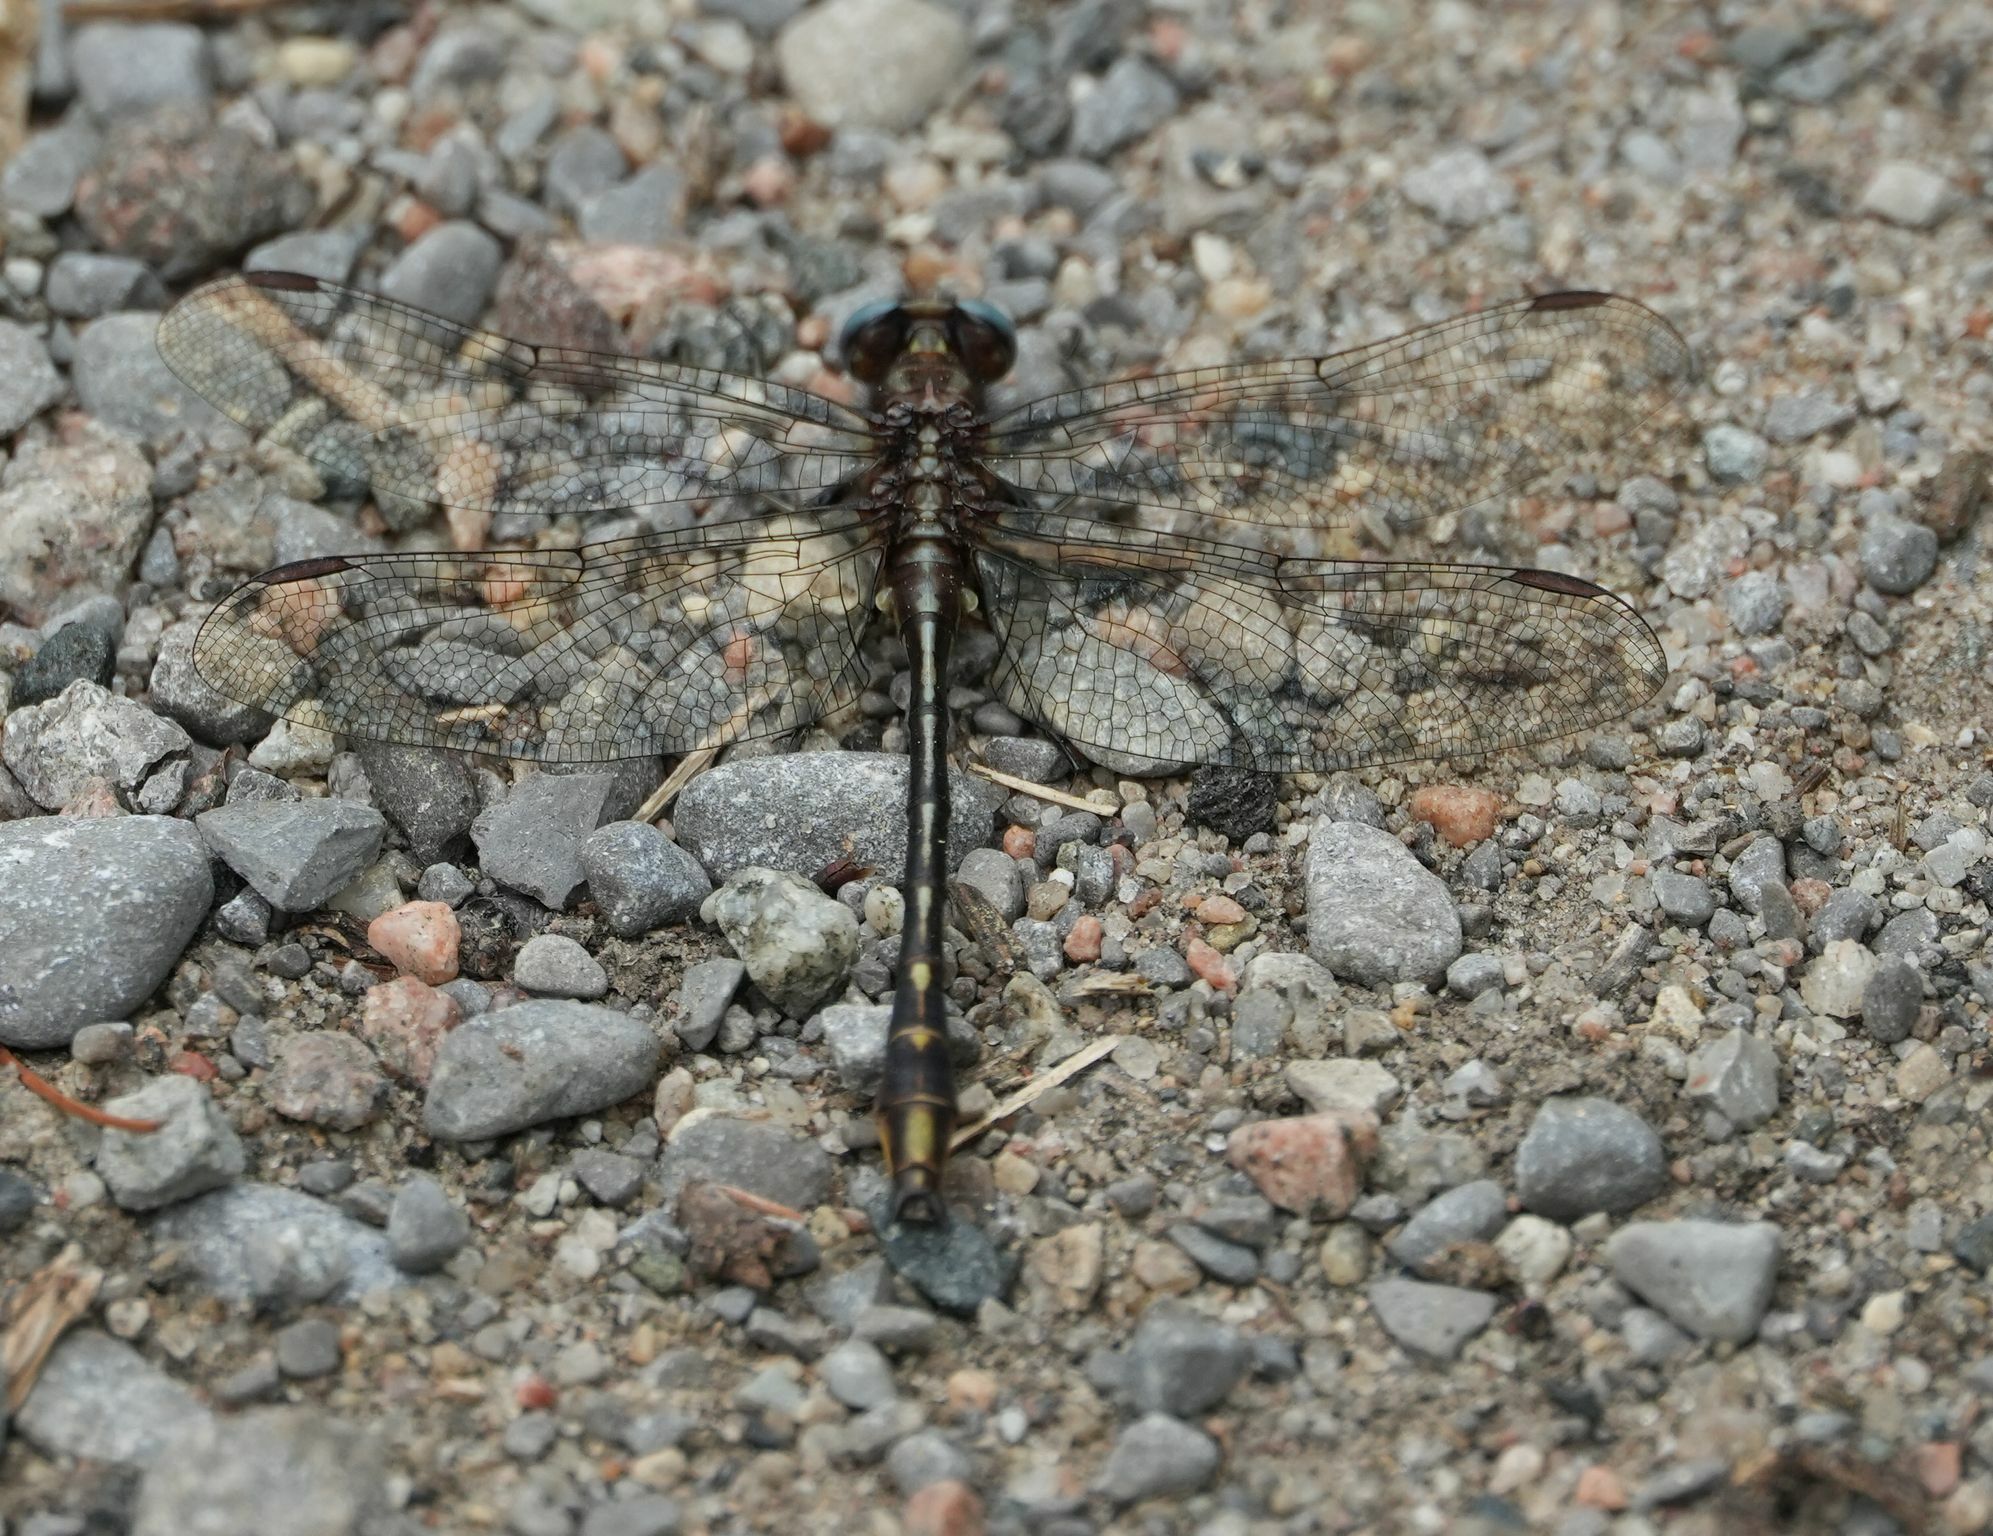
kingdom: Animalia
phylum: Arthropoda
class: Insecta
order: Odonata
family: Gomphidae
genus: Phanogomphus
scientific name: Phanogomphus exilis
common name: Lancet clubtail
